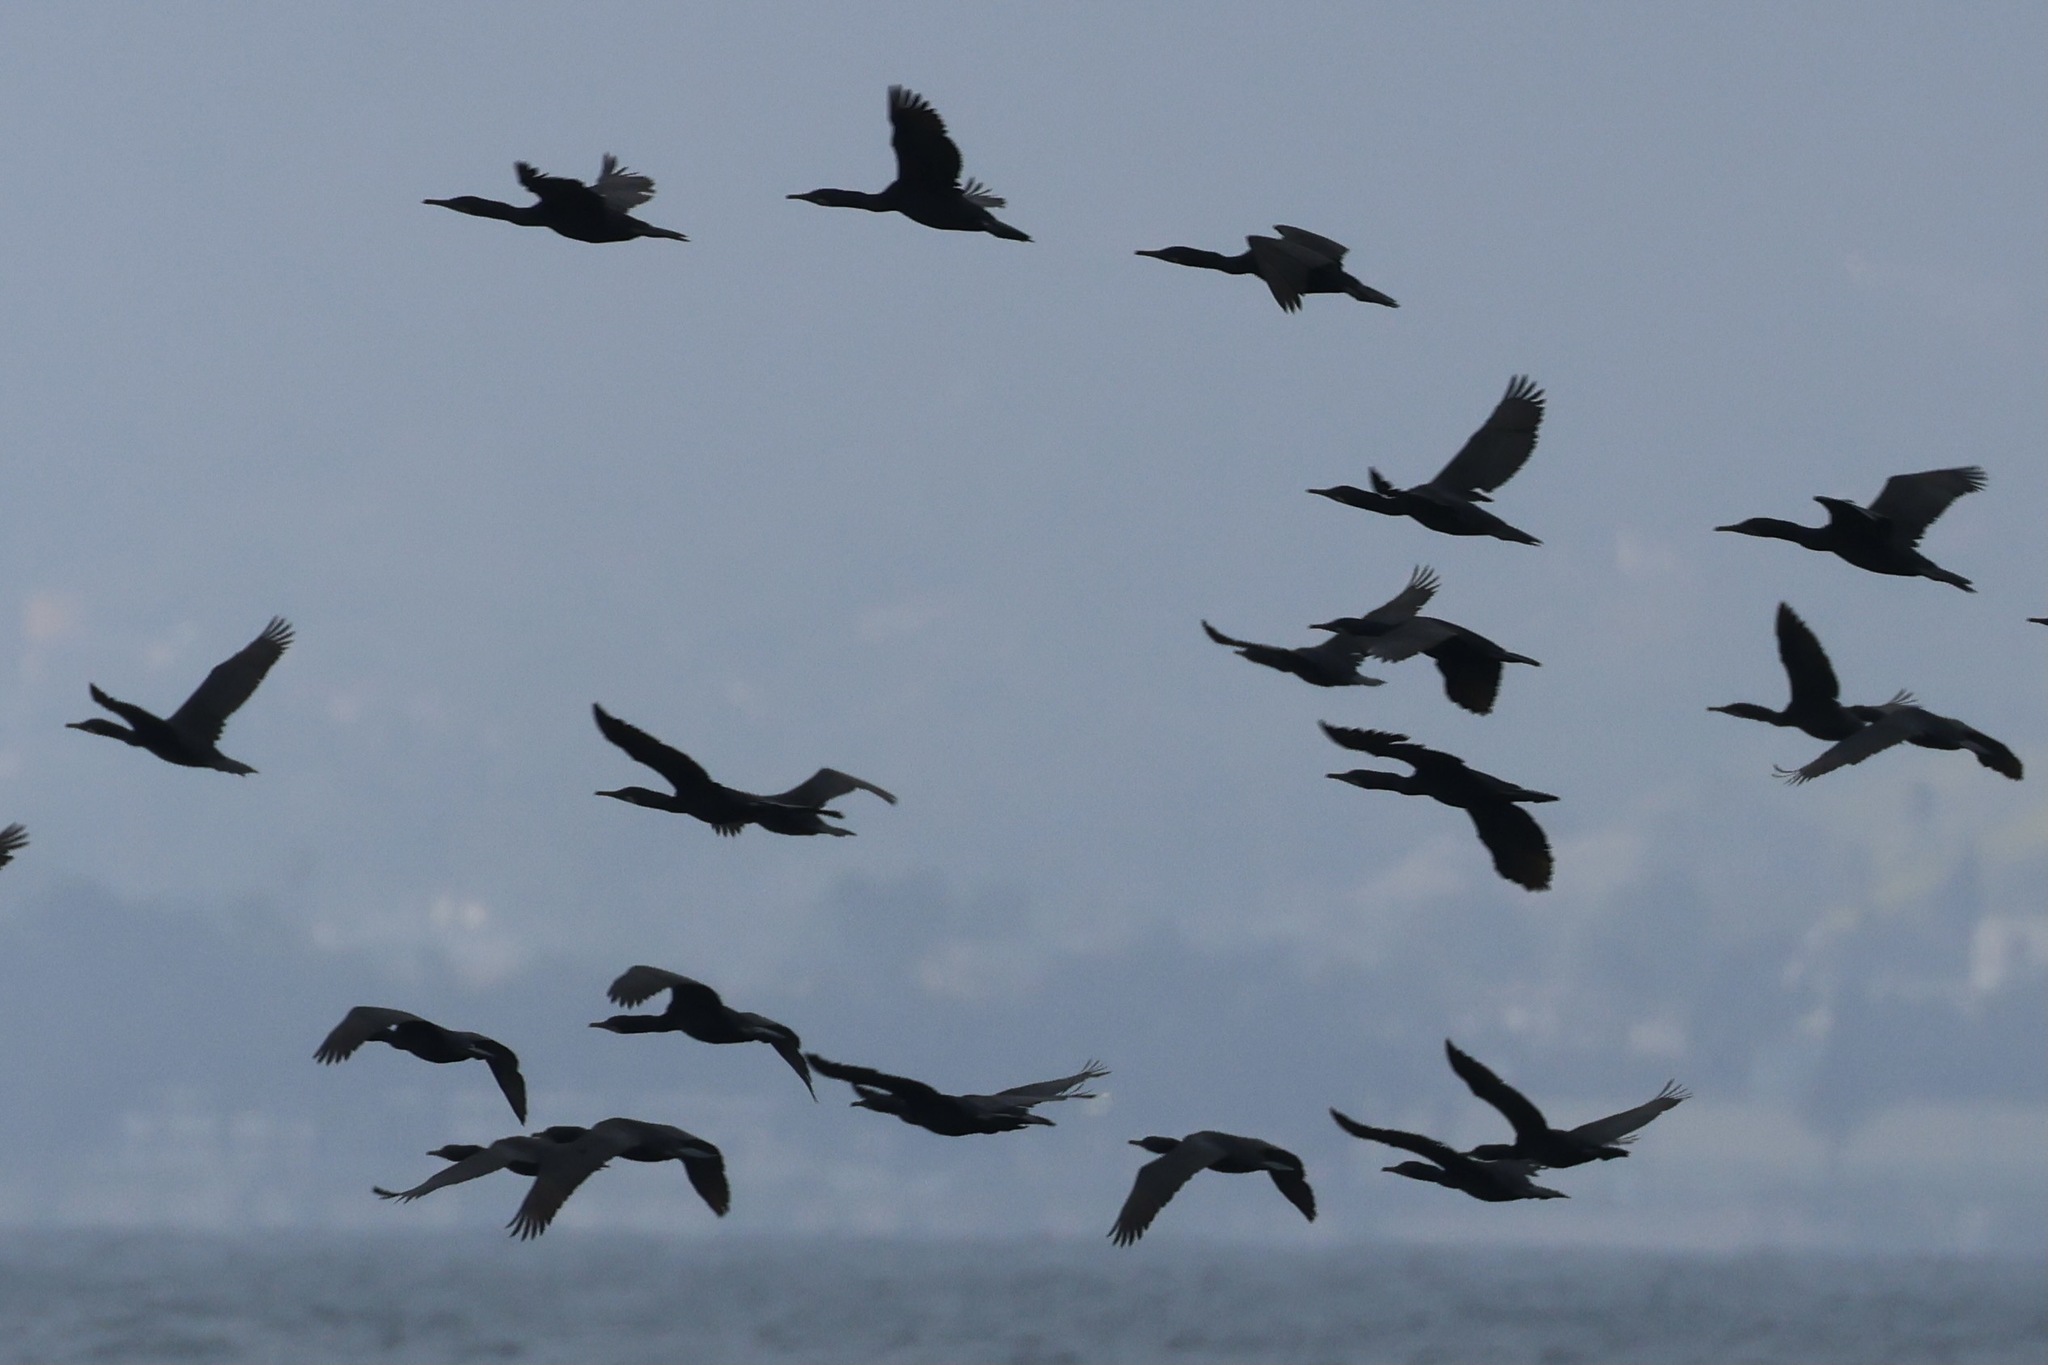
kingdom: Animalia
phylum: Chordata
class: Aves
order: Suliformes
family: Phalacrocoracidae
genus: Urile
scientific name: Urile penicillatus
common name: Brandt's cormorant
